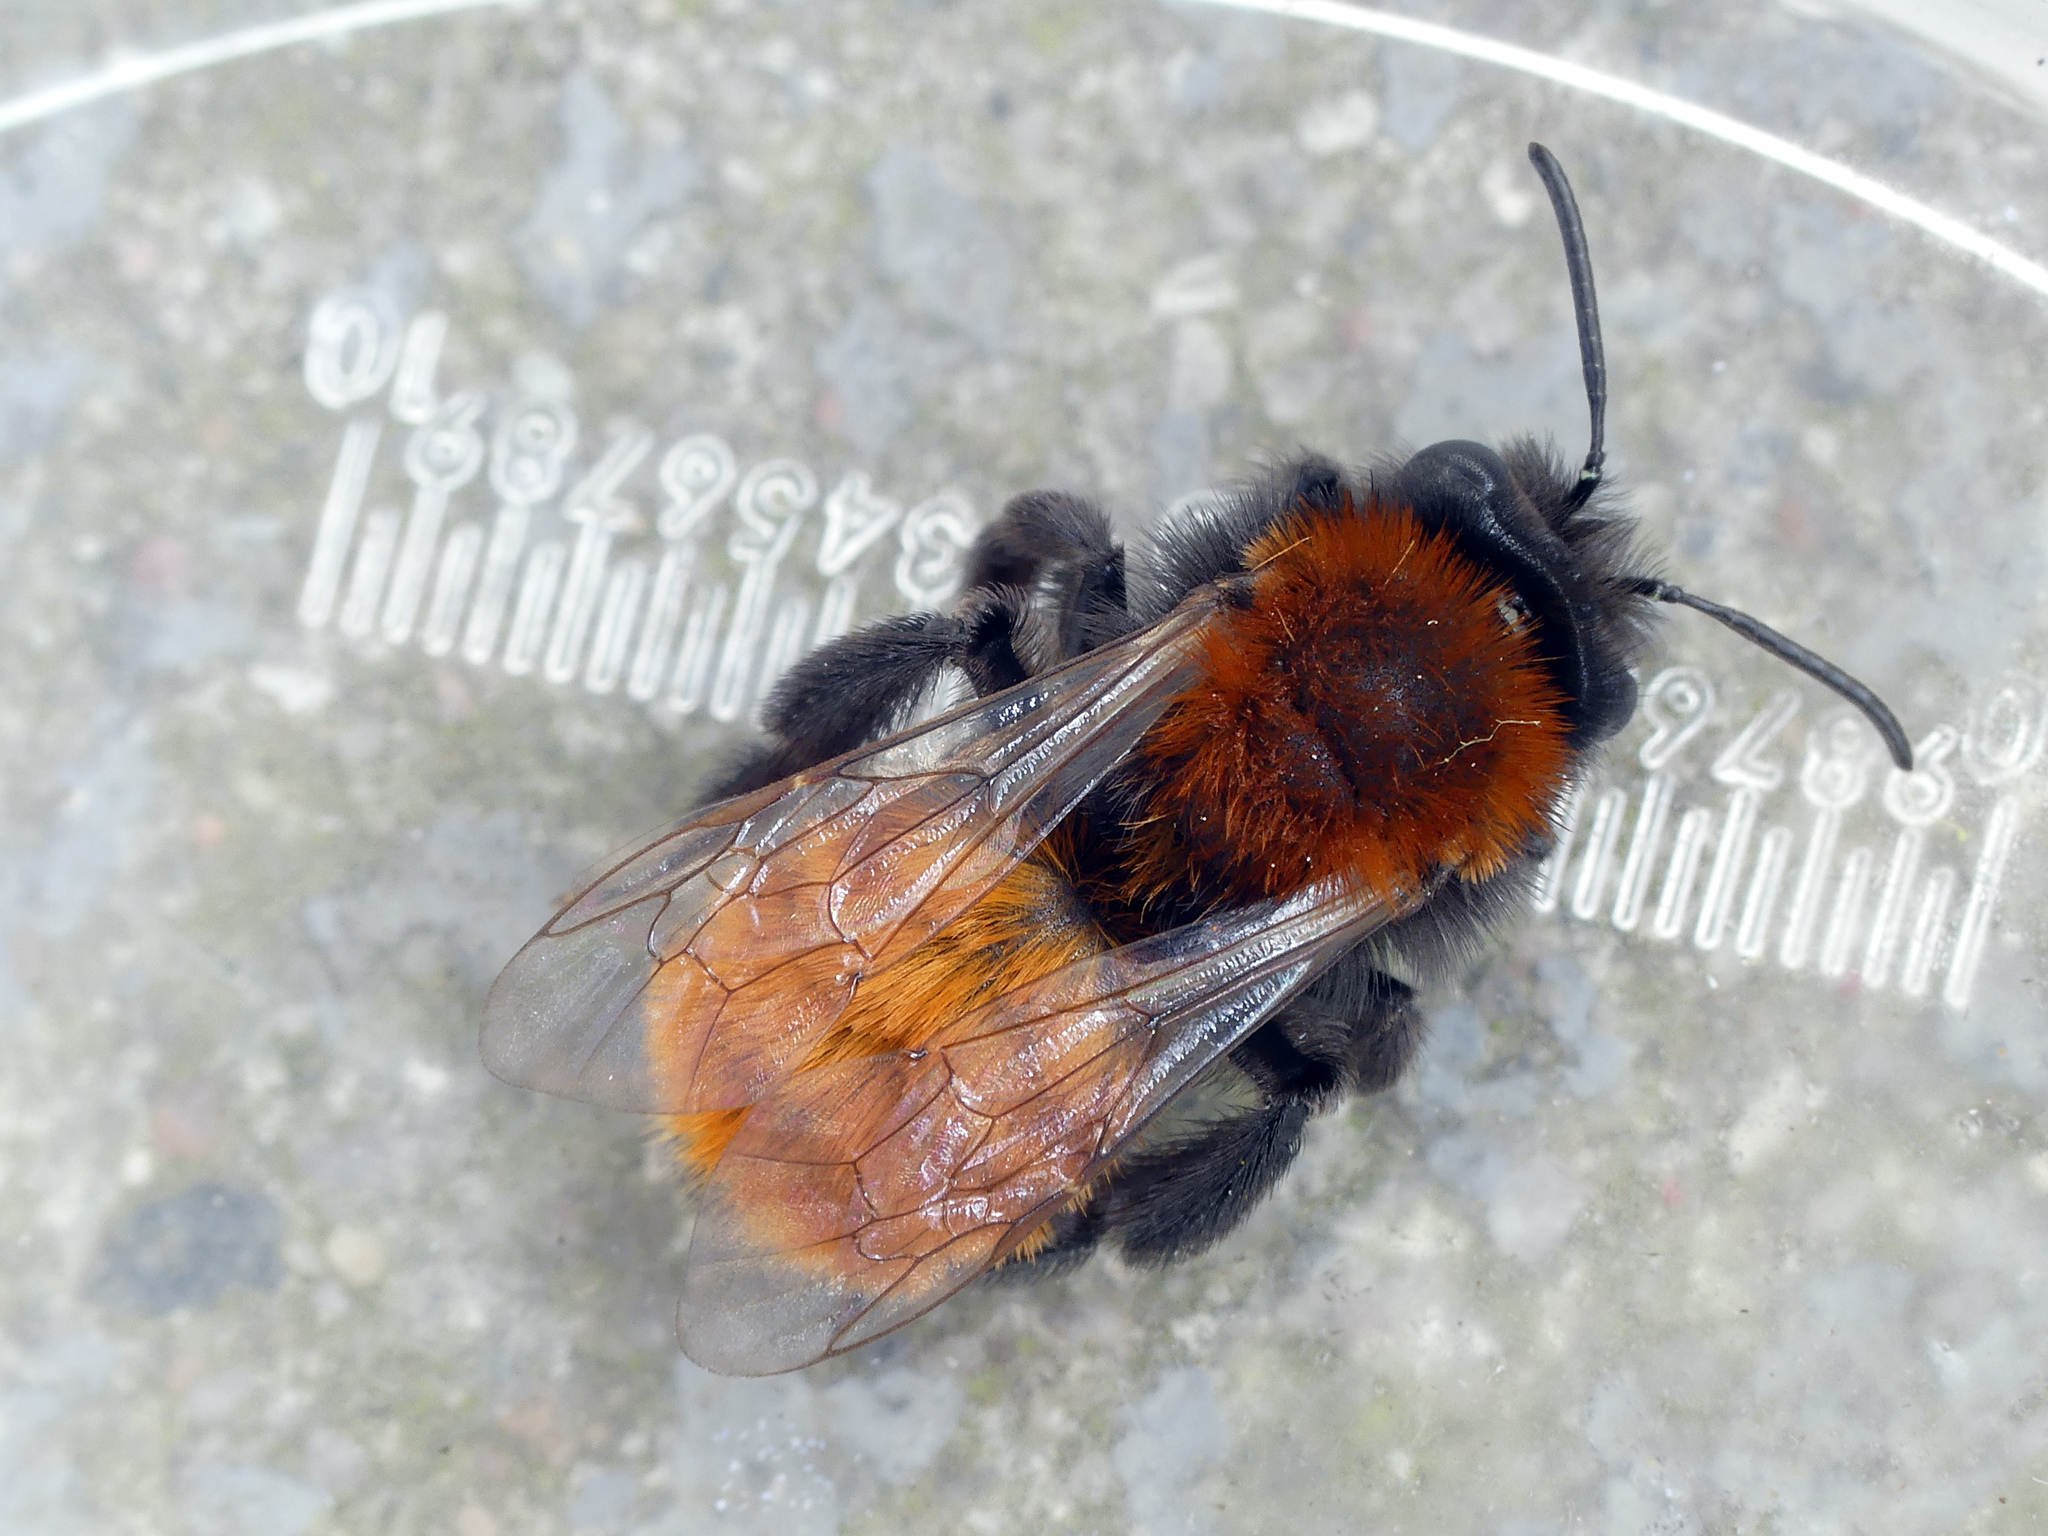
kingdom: Animalia
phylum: Arthropoda
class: Insecta
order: Hymenoptera
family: Andrenidae
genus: Andrena
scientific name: Andrena fulva
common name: Tawny mining bee
